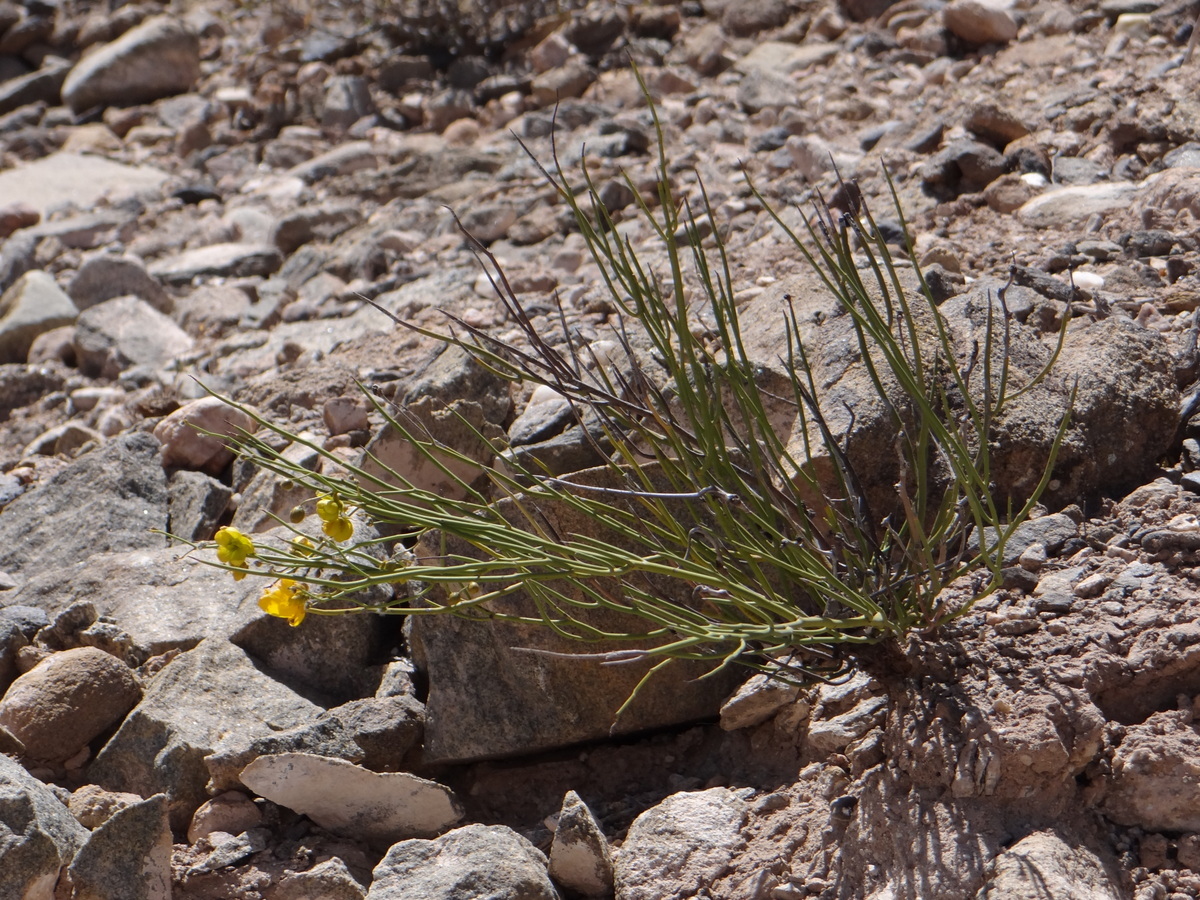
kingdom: Plantae
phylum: Tracheophyta
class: Magnoliopsida
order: Fabales
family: Fabaceae
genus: Senna
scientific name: Senna crassiramea
